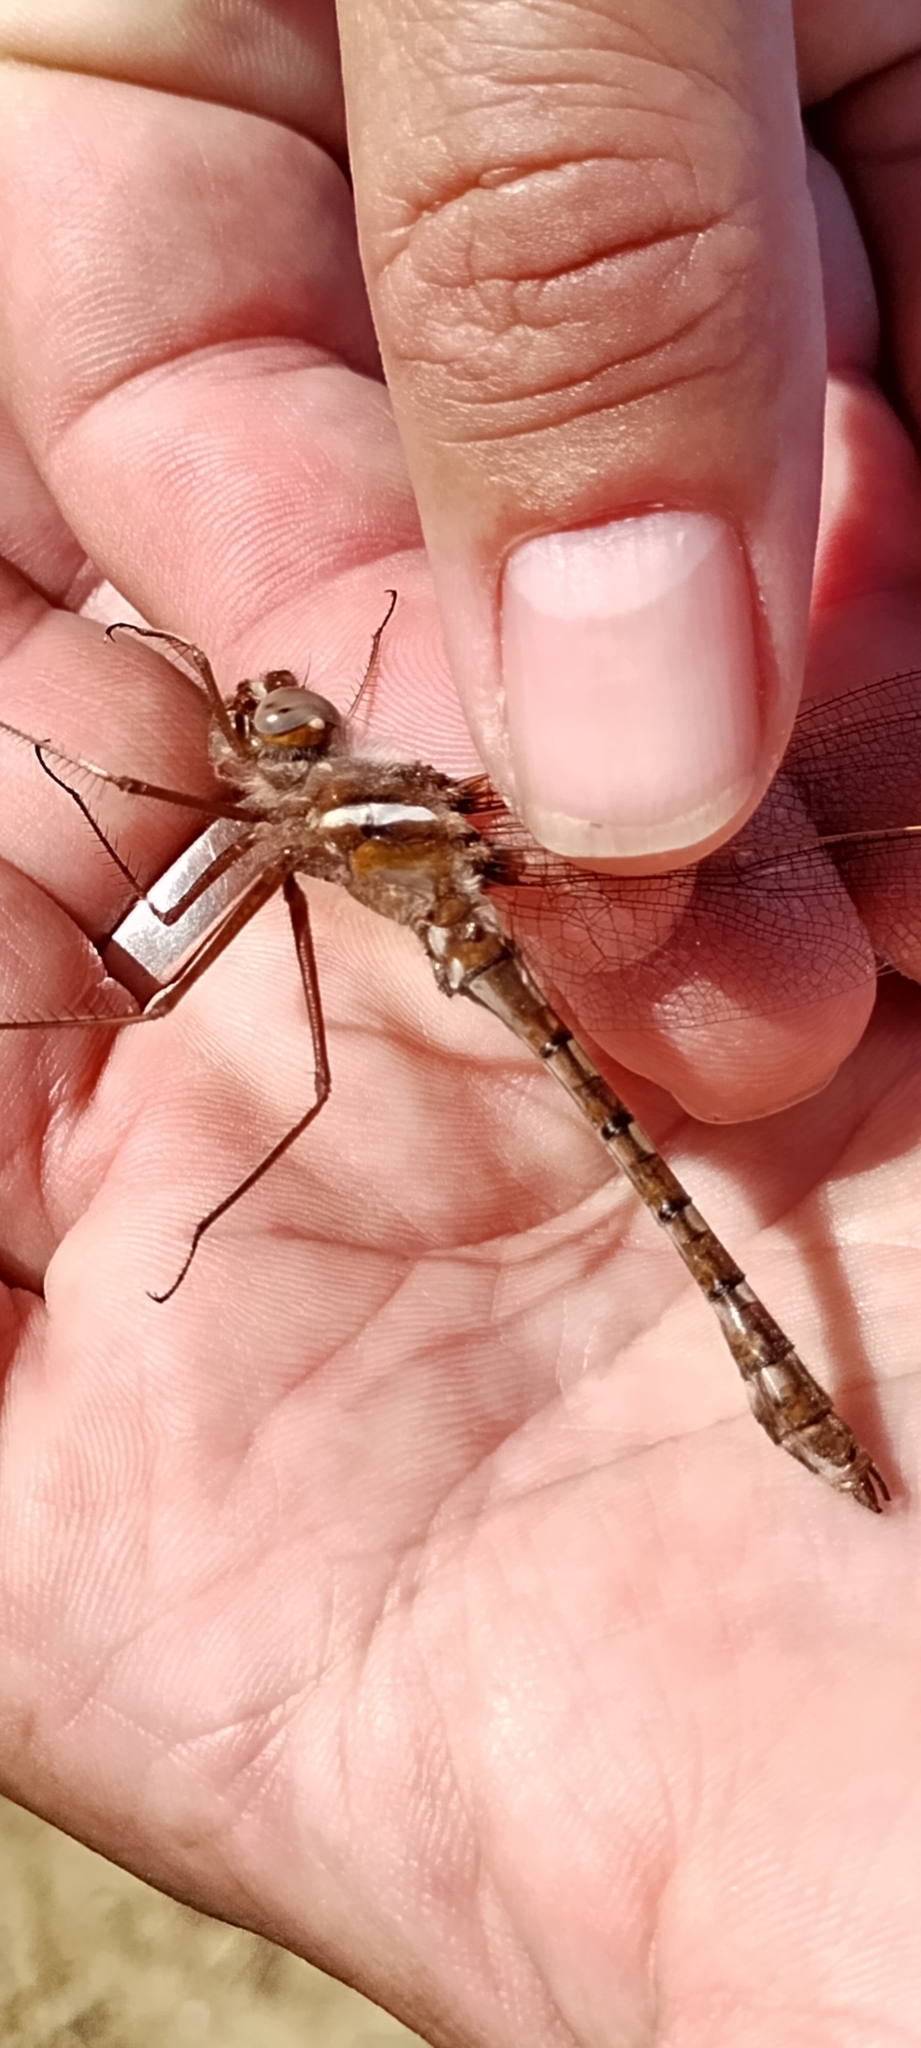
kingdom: Animalia
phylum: Arthropoda
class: Insecta
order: Odonata
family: Macromiidae
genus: Didymops
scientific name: Didymops transversa
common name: Stream cruiser
